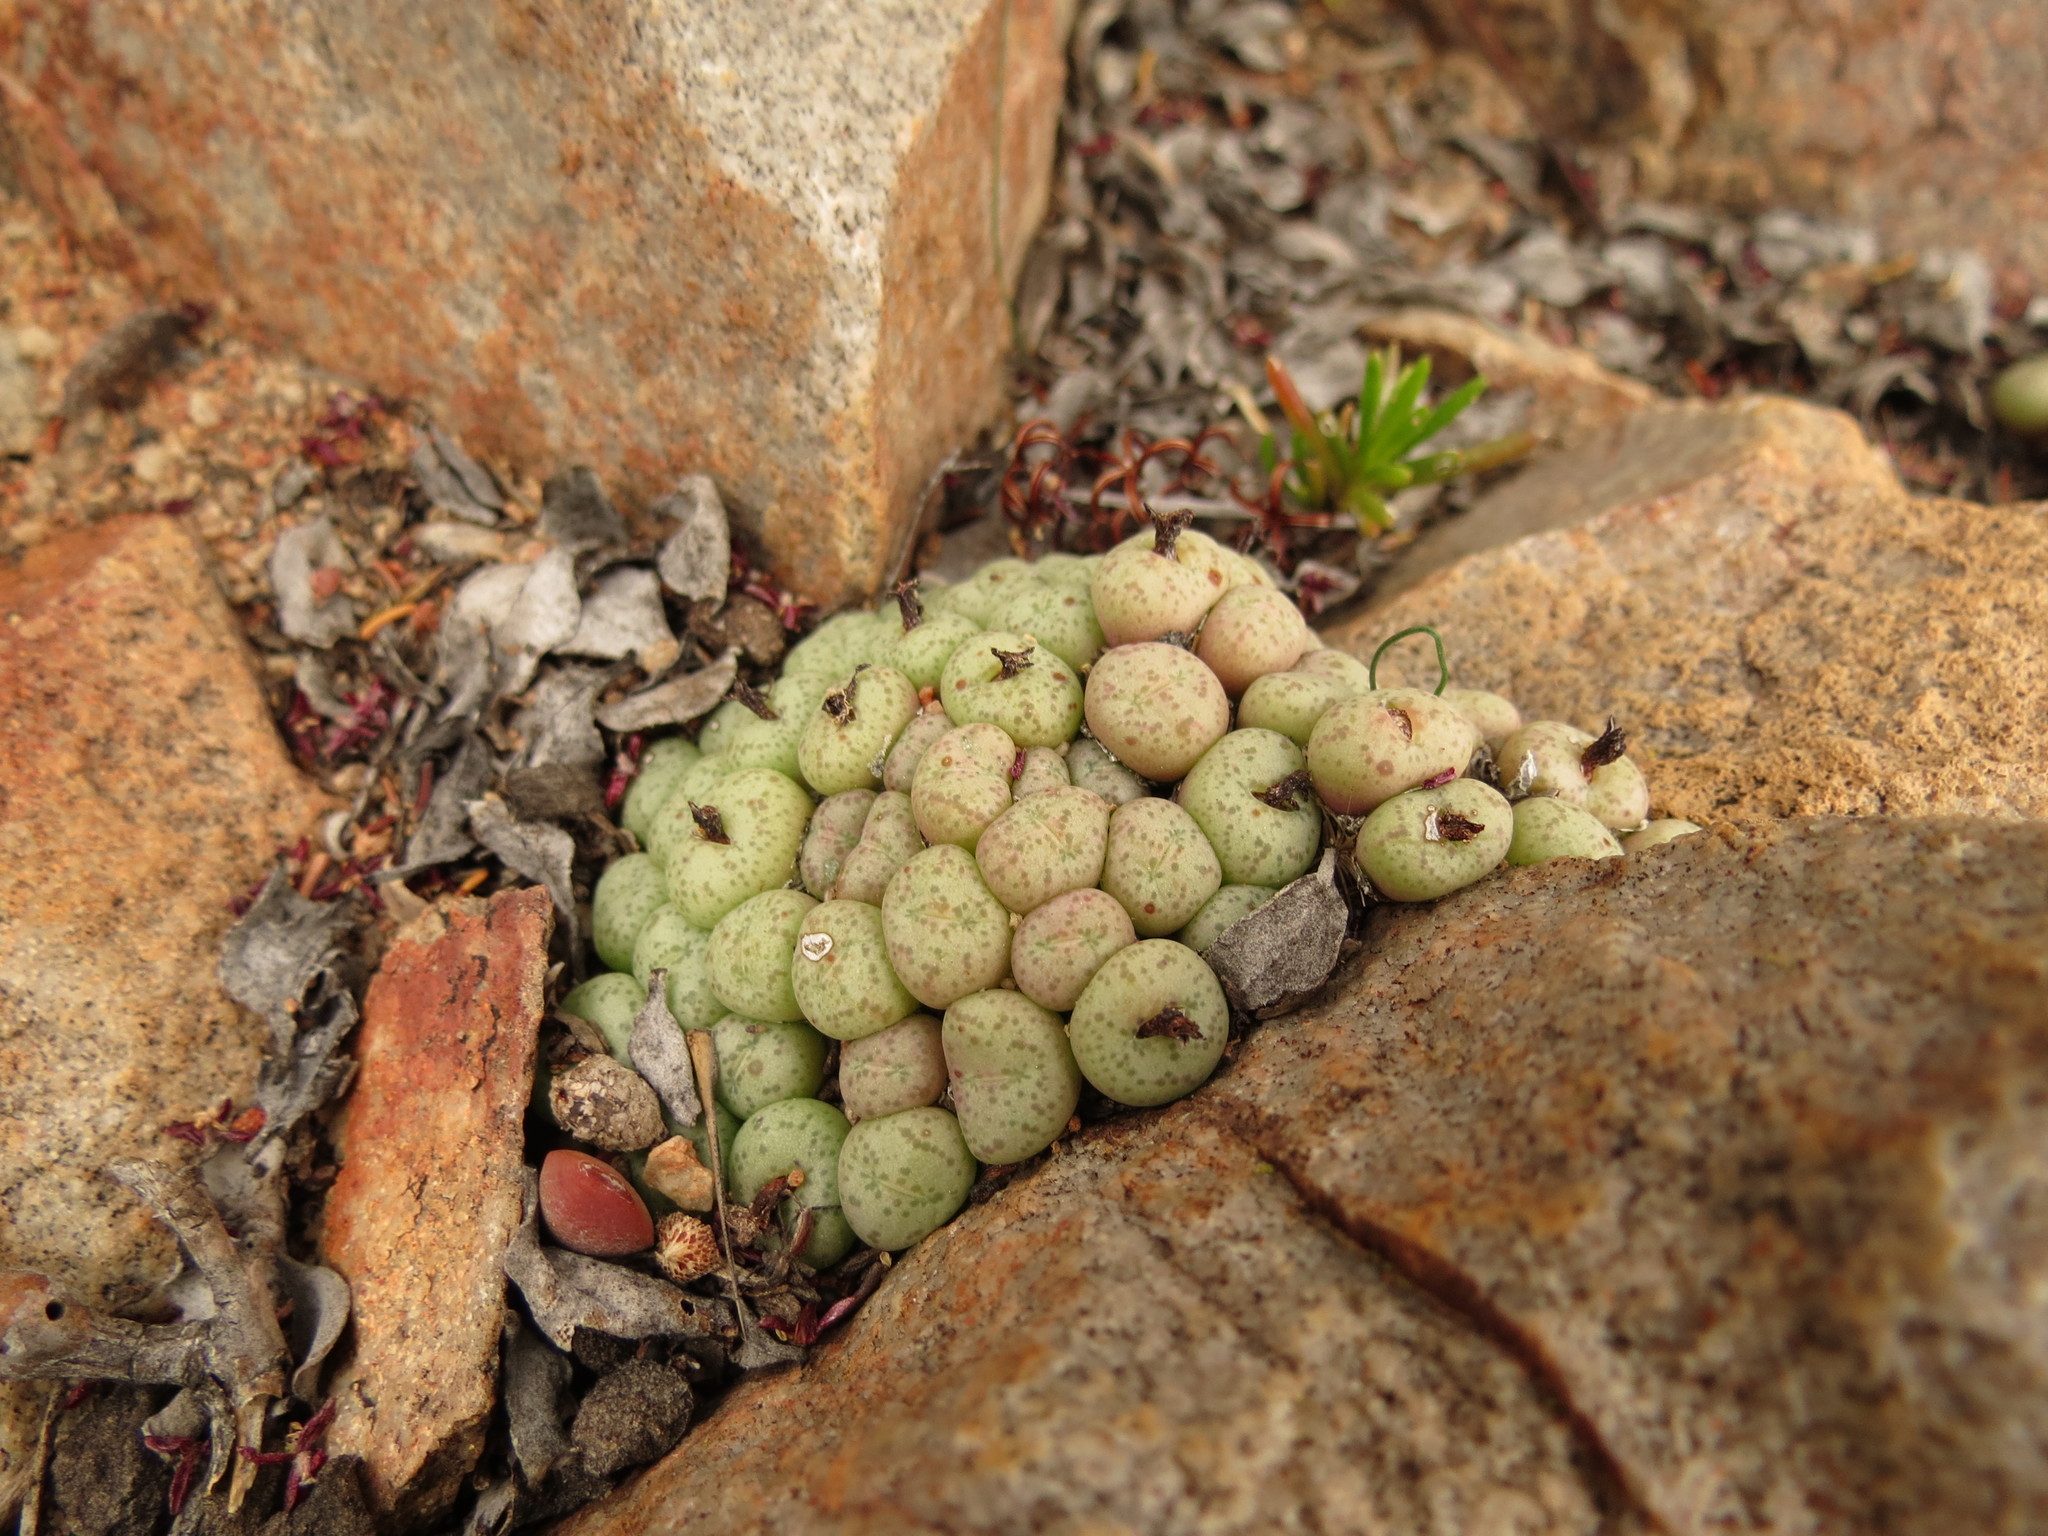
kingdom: Plantae
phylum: Tracheophyta
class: Magnoliopsida
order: Caryophyllales
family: Aizoaceae
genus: Conophytum
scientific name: Conophytum truncatum
